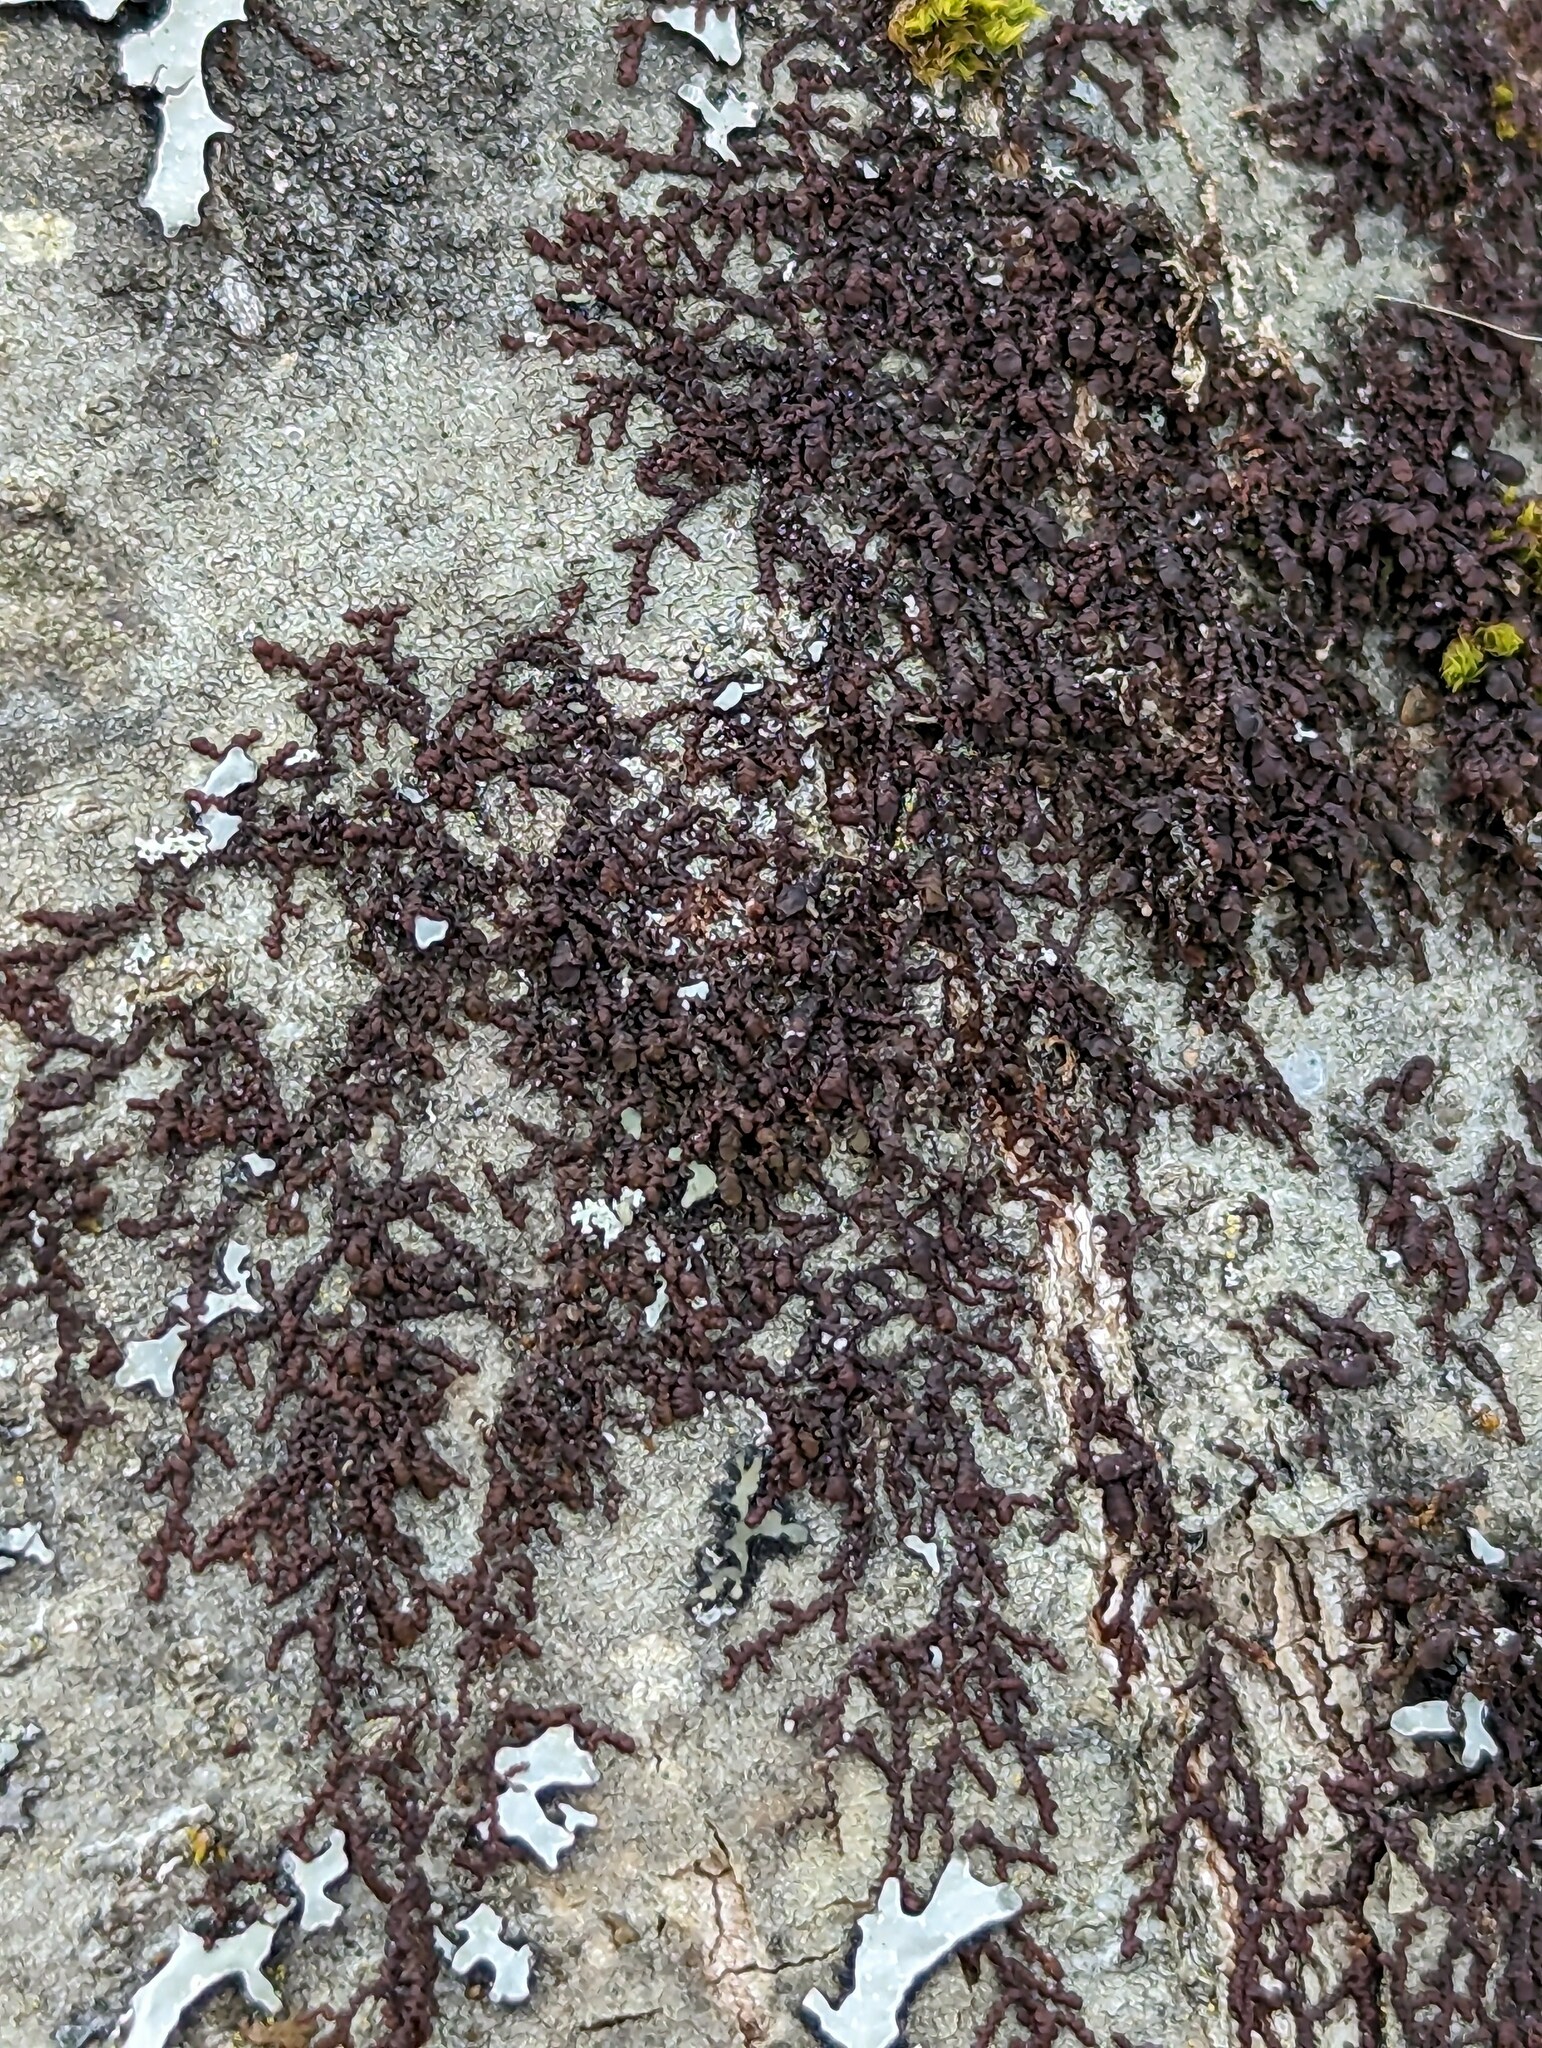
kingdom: Plantae
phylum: Marchantiophyta
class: Jungermanniopsida
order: Porellales
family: Frullaniaceae
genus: Frullania
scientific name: Frullania eboracensis
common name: New york scalewort
